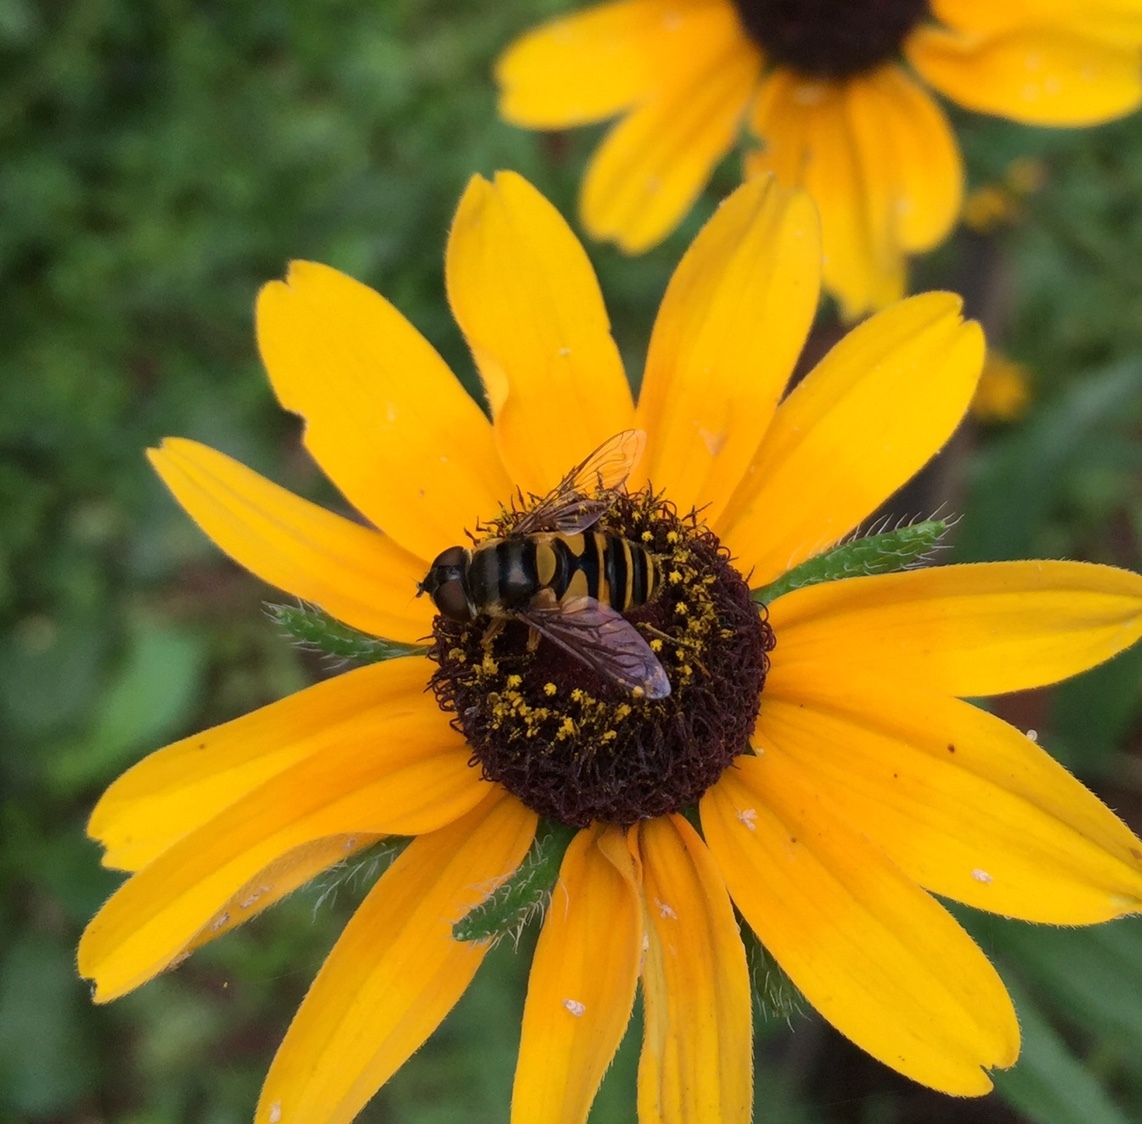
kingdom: Animalia
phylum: Arthropoda
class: Insecta
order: Diptera
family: Syrphidae
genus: Eristalis
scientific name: Eristalis transversa
